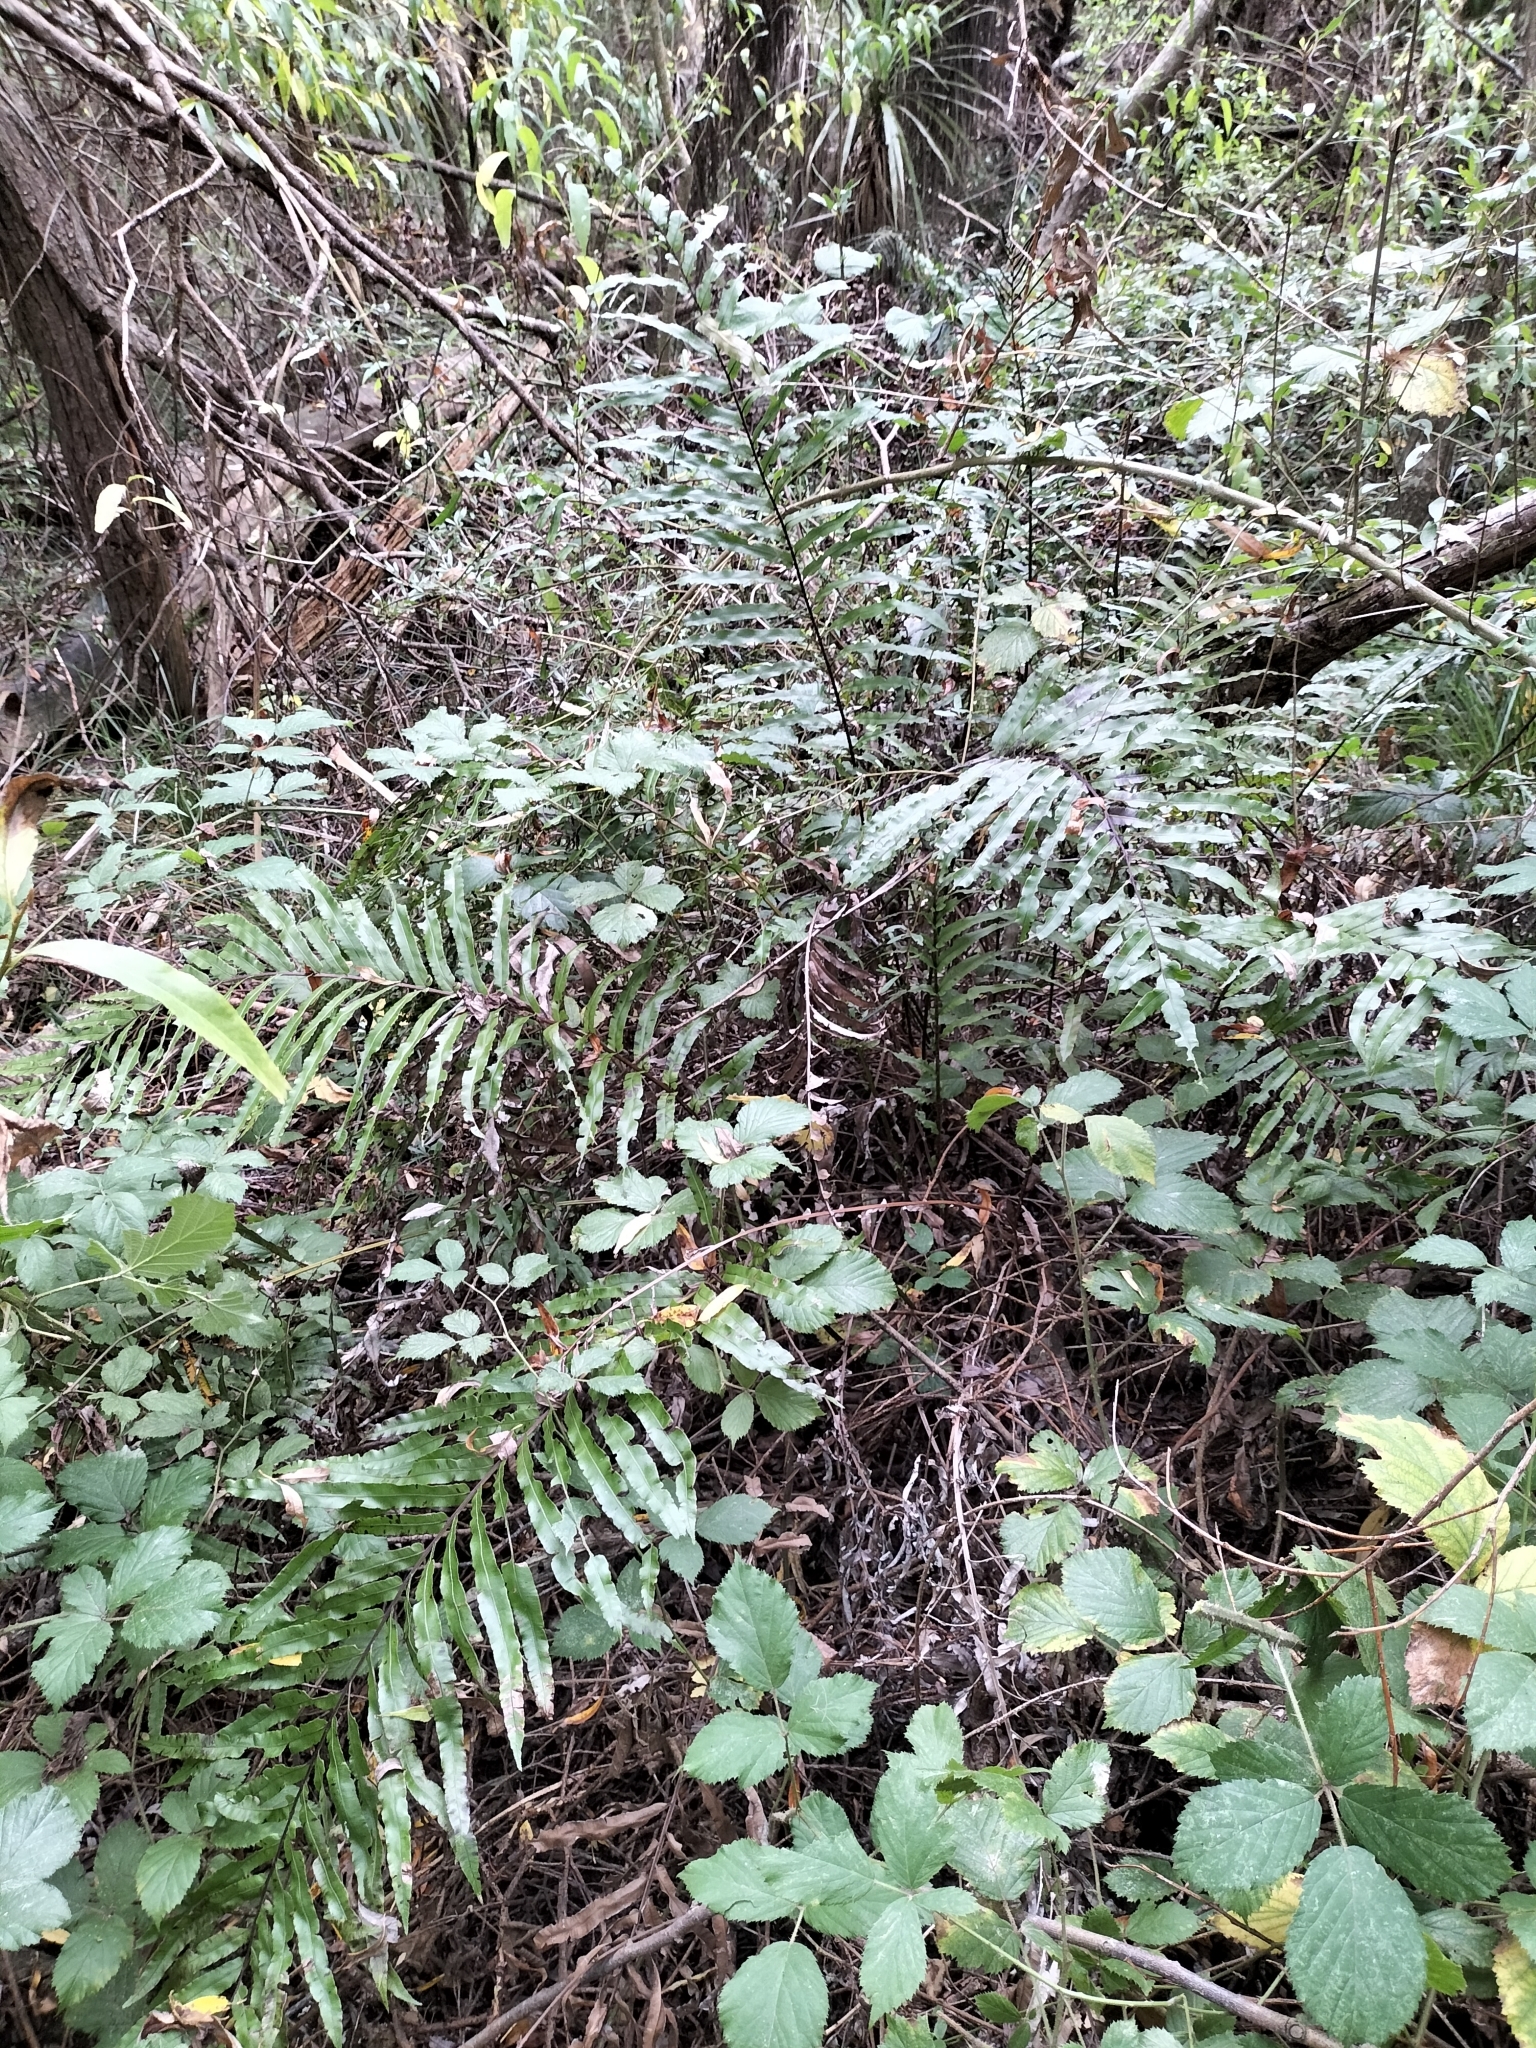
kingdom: Plantae
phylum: Tracheophyta
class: Polypodiopsida
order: Polypodiales
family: Blechnaceae
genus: Parablechnum
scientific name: Parablechnum novae-zelandiae
